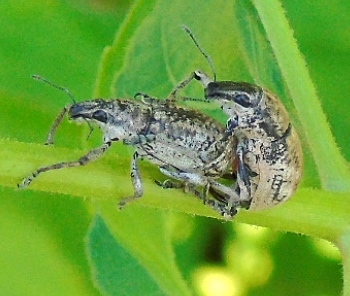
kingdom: Animalia
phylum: Arthropoda
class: Insecta
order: Coleoptera
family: Curculionidae
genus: Epicaerus
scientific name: Epicaerus
